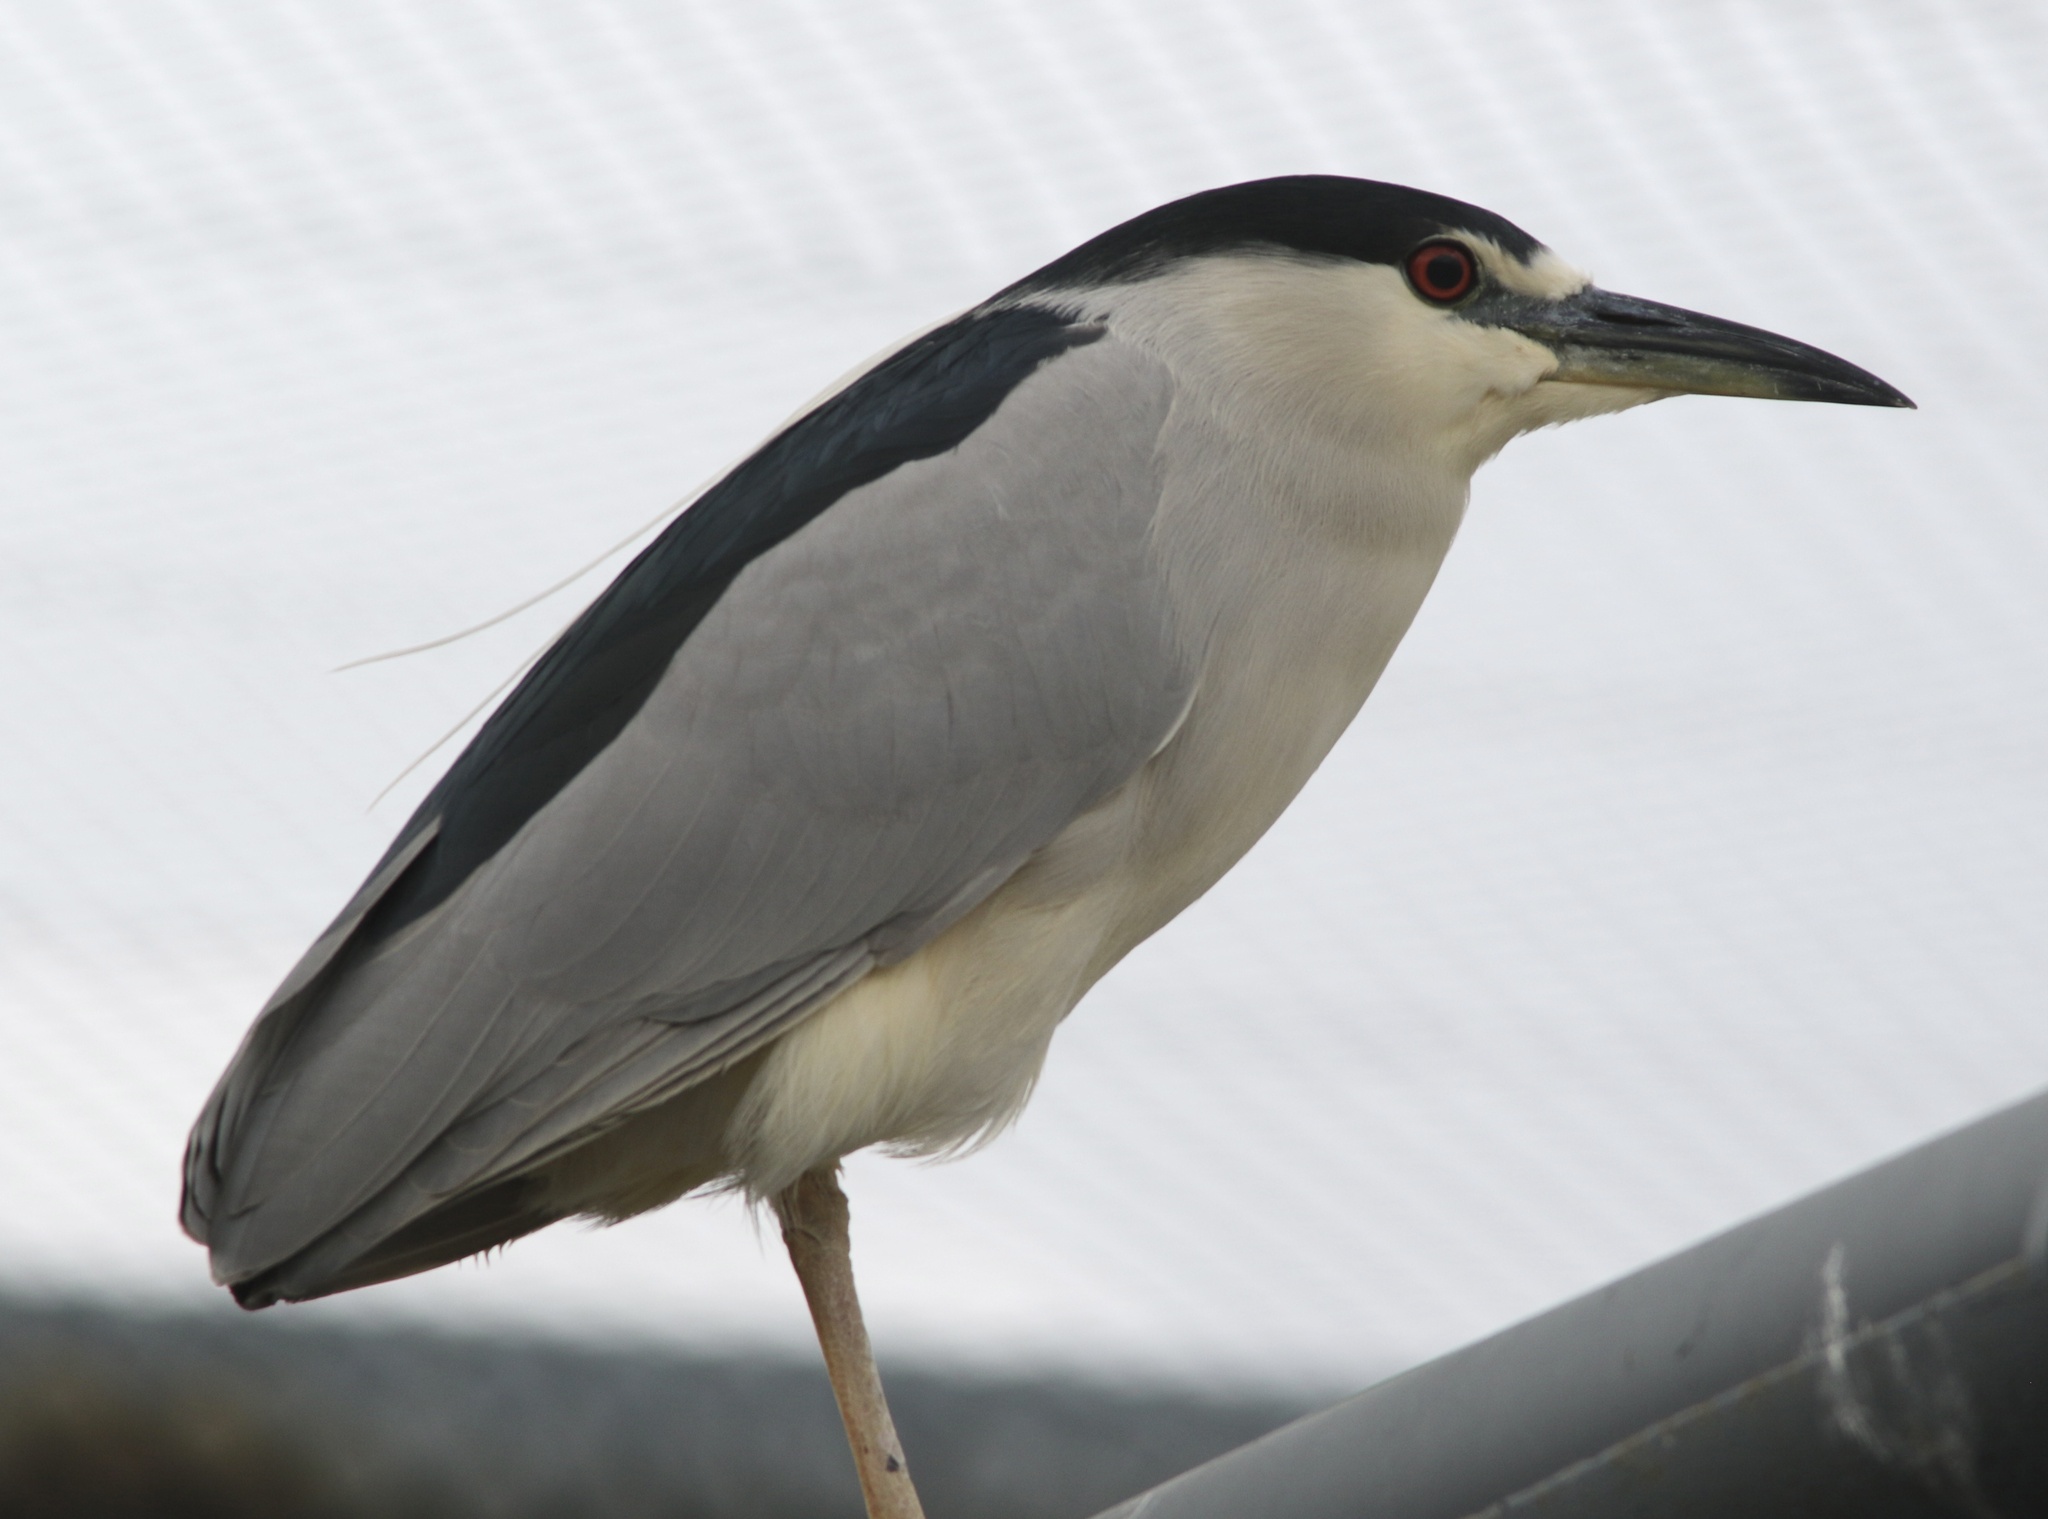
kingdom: Animalia
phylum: Chordata
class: Aves
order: Pelecaniformes
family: Ardeidae
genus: Nycticorax
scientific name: Nycticorax nycticorax
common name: Black-crowned night heron
